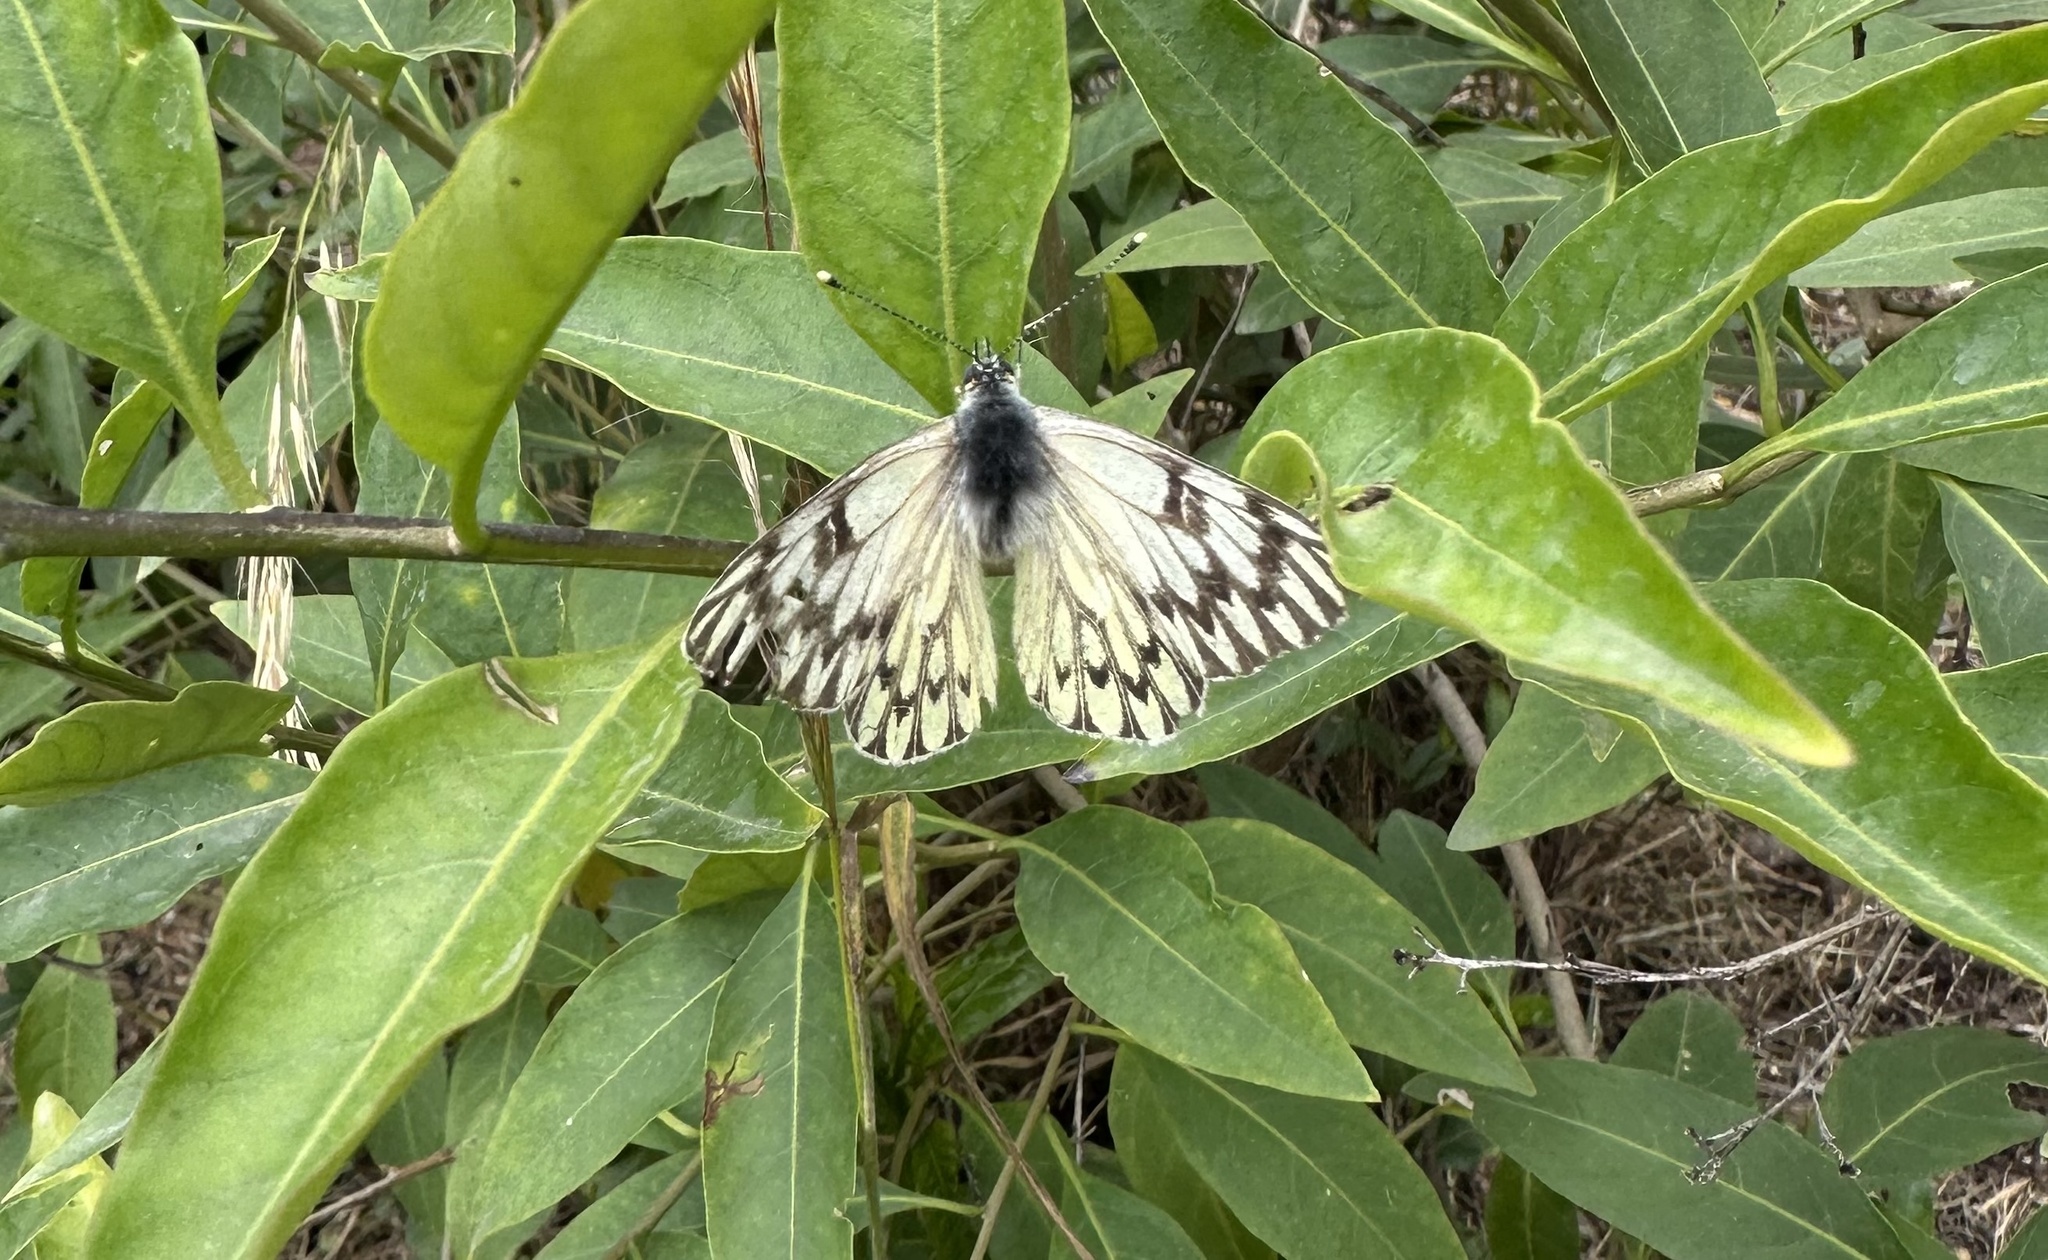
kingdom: Animalia
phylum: Arthropoda
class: Insecta
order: Lepidoptera
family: Pieridae
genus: Tatochila
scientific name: Tatochila autodice
